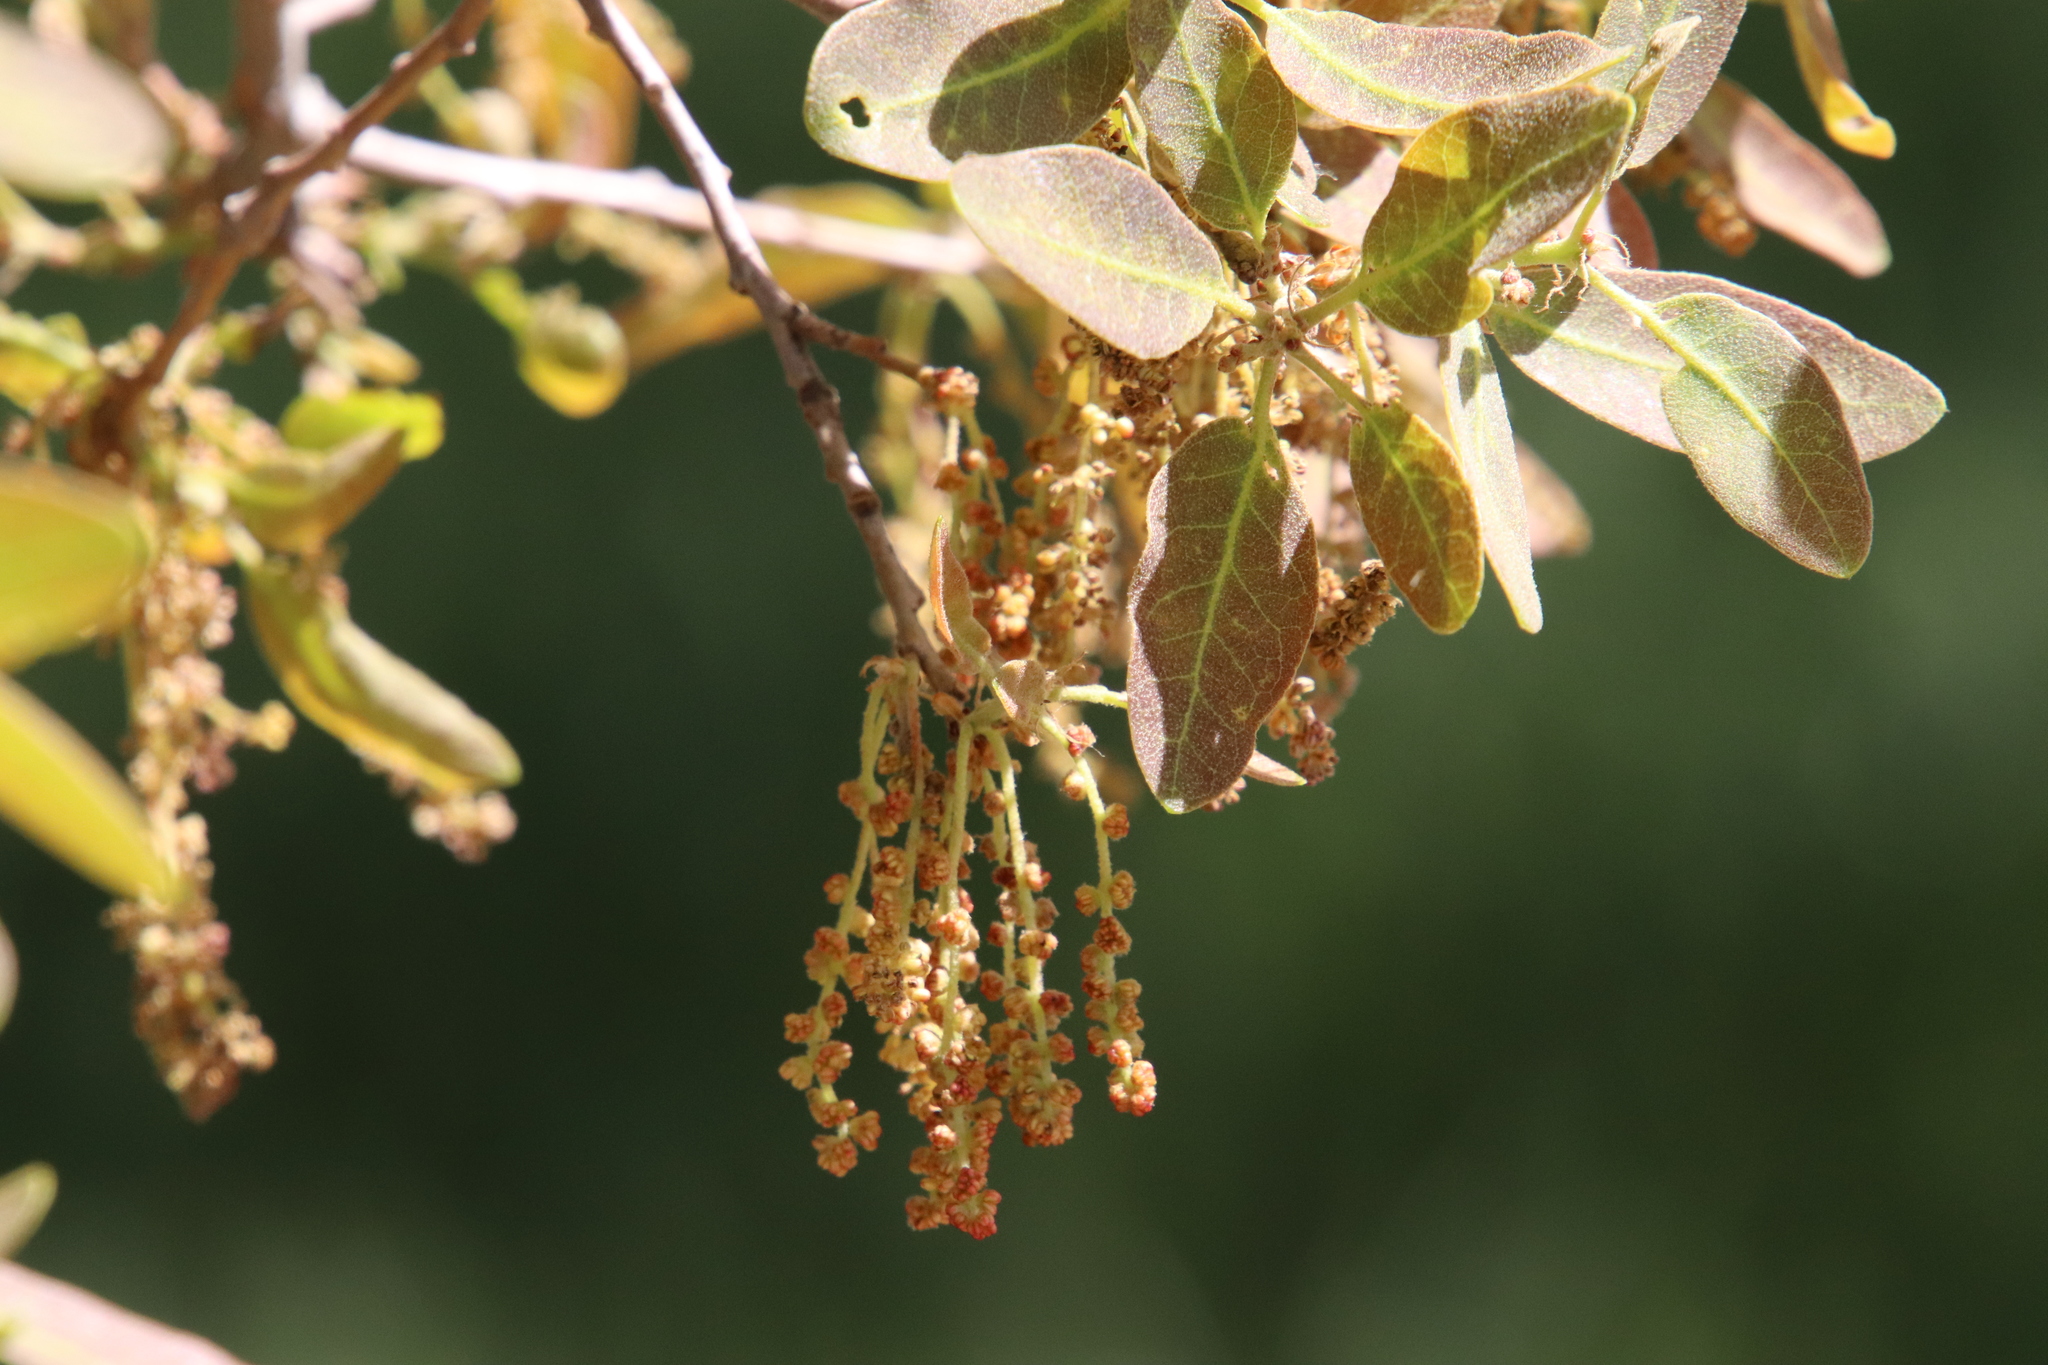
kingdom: Plantae
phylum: Tracheophyta
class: Magnoliopsida
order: Fagales
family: Fagaceae
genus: Quercus
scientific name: Quercus engelmannii
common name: Engelmann oak
